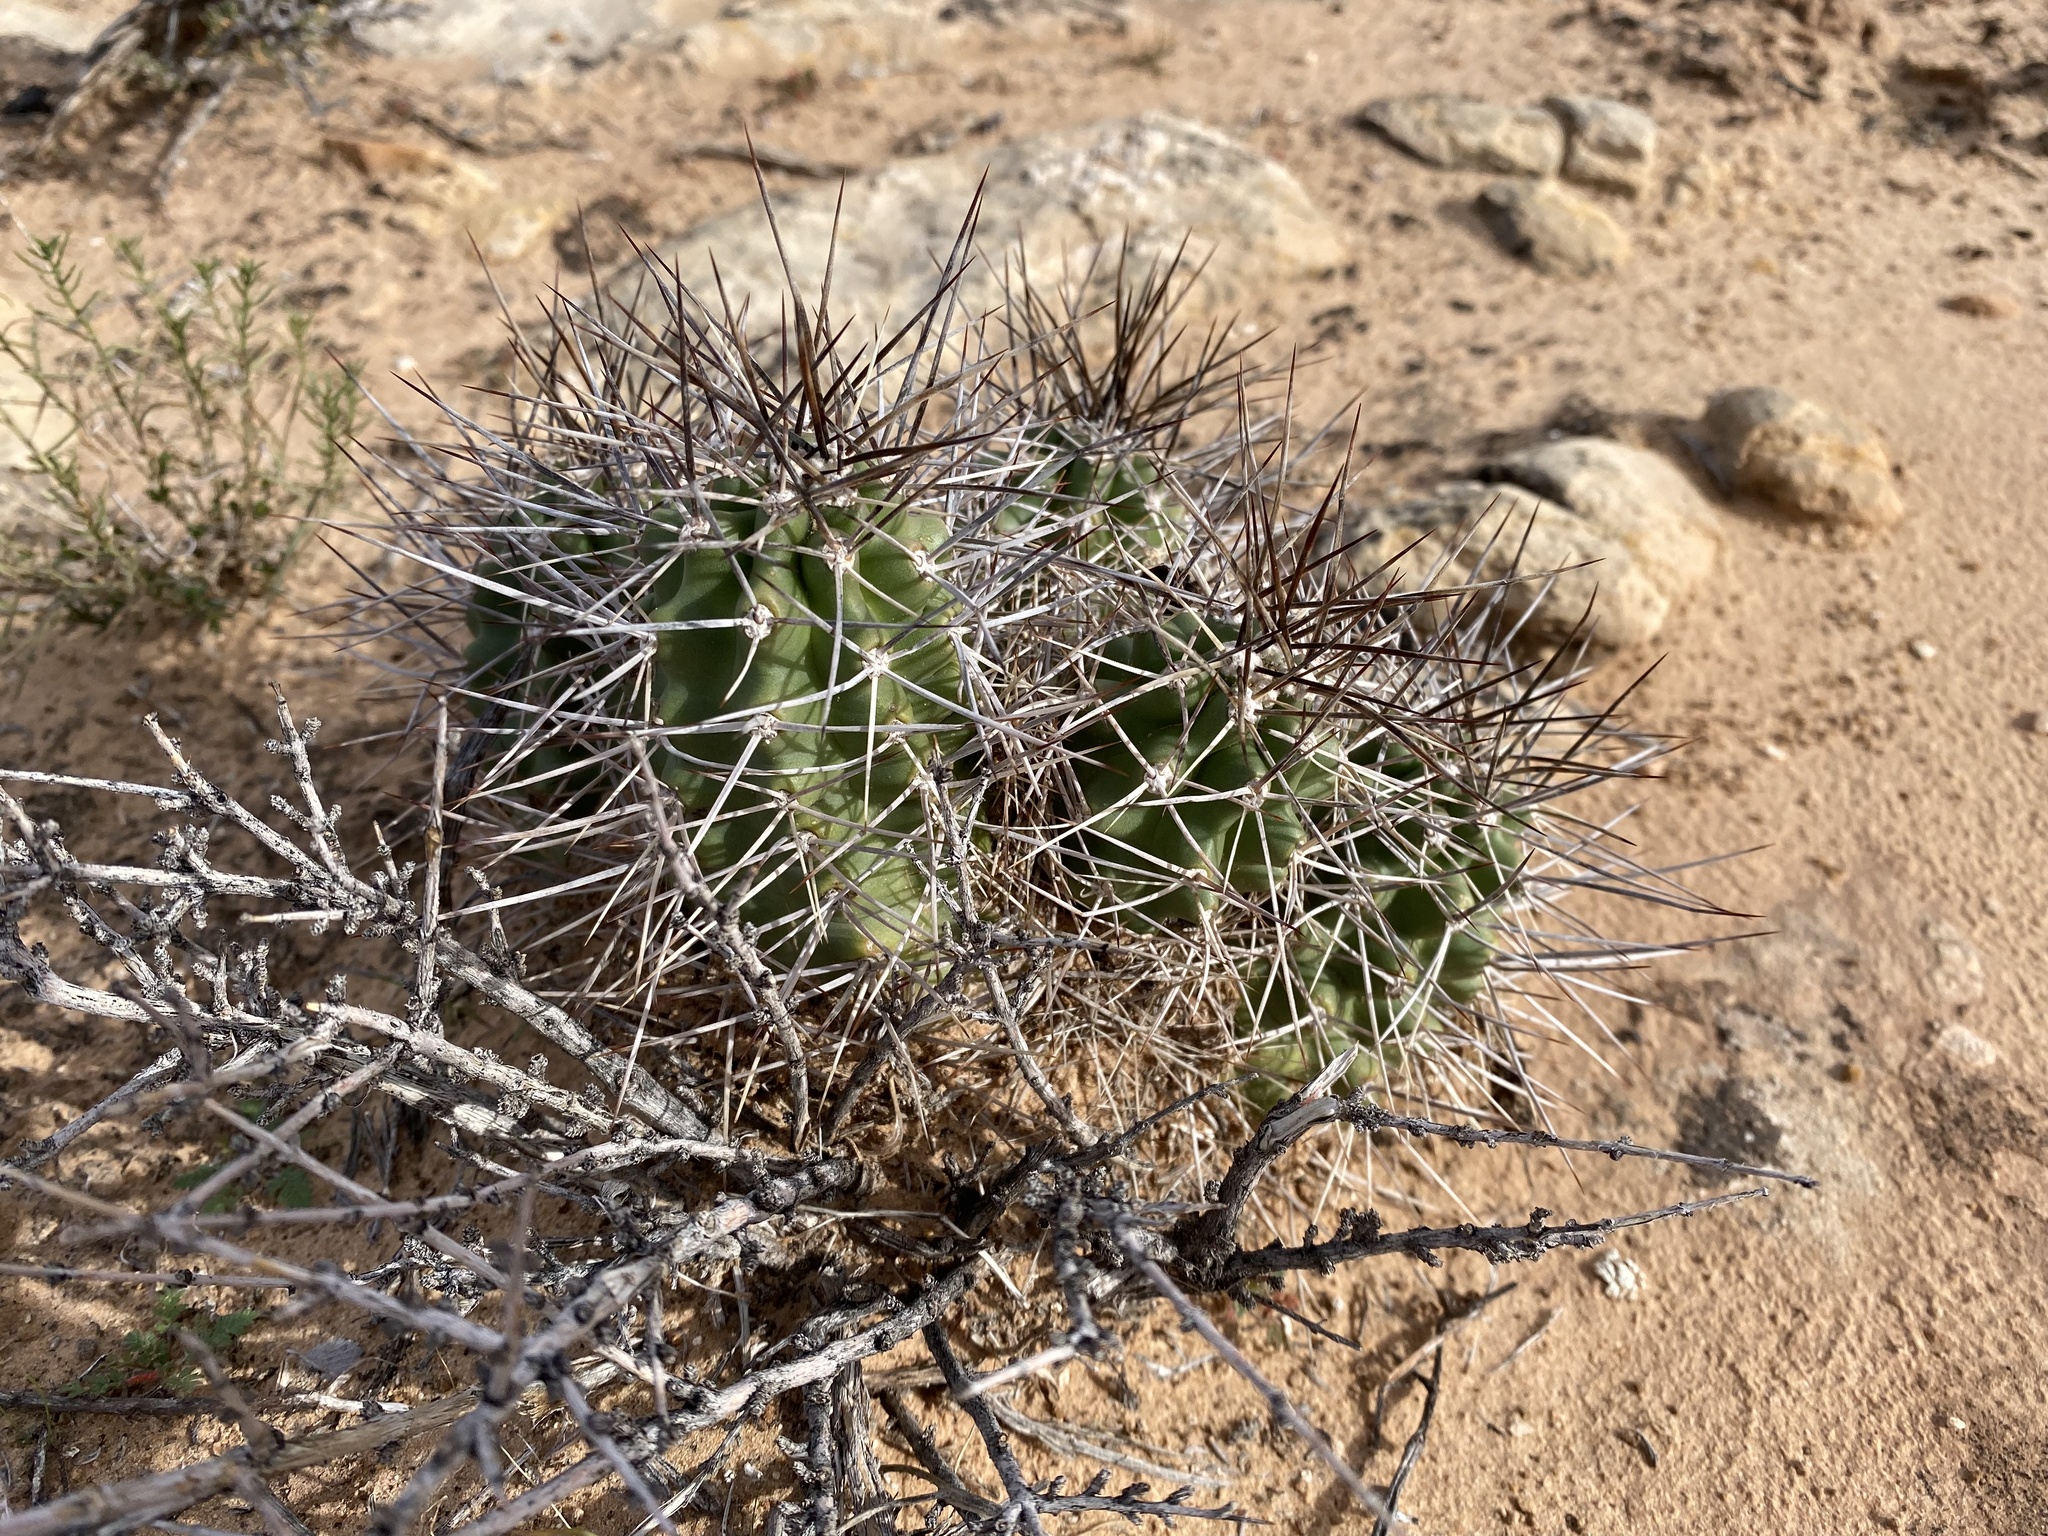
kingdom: Plantae
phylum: Tracheophyta
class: Magnoliopsida
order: Caryophyllales
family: Cactaceae
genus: Echinocereus
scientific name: Echinocereus triglochidiatus
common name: Claretcup hedgehog
